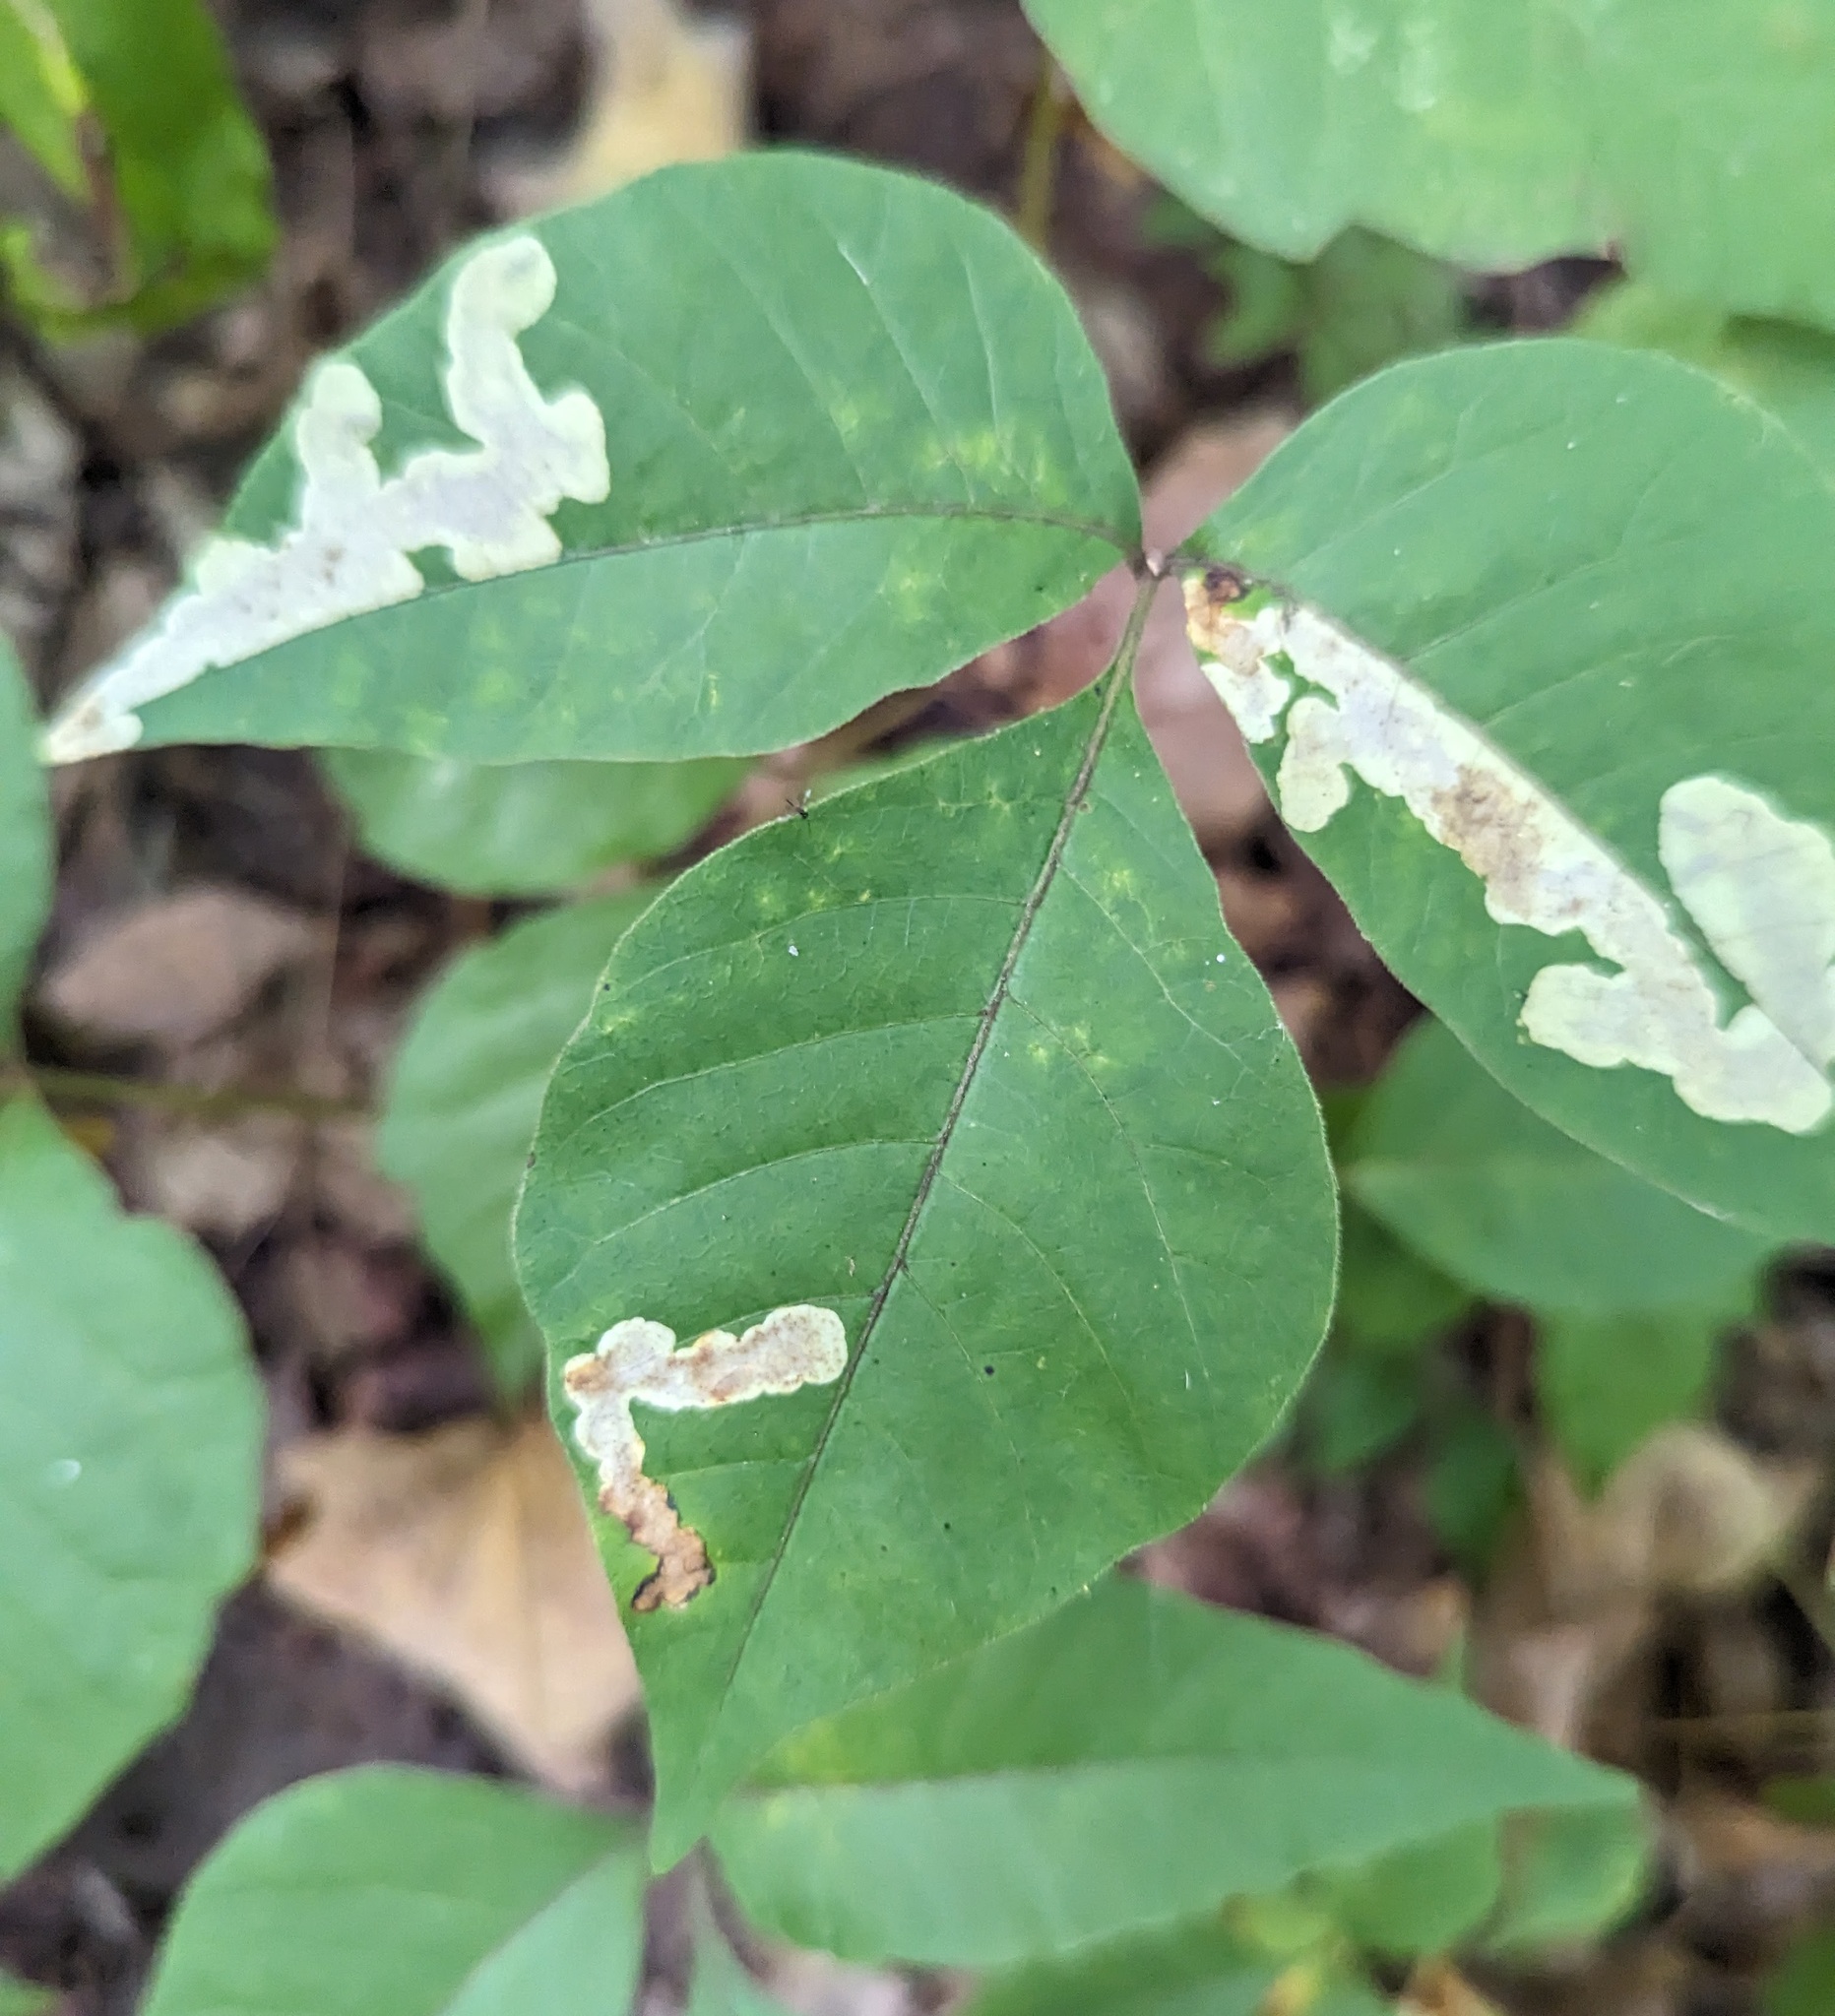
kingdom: Animalia
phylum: Arthropoda
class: Insecta
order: Lepidoptera
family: Gracillariidae
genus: Cameraria
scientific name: Cameraria guttifinitella
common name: Poison ivy leaf-miner moth
